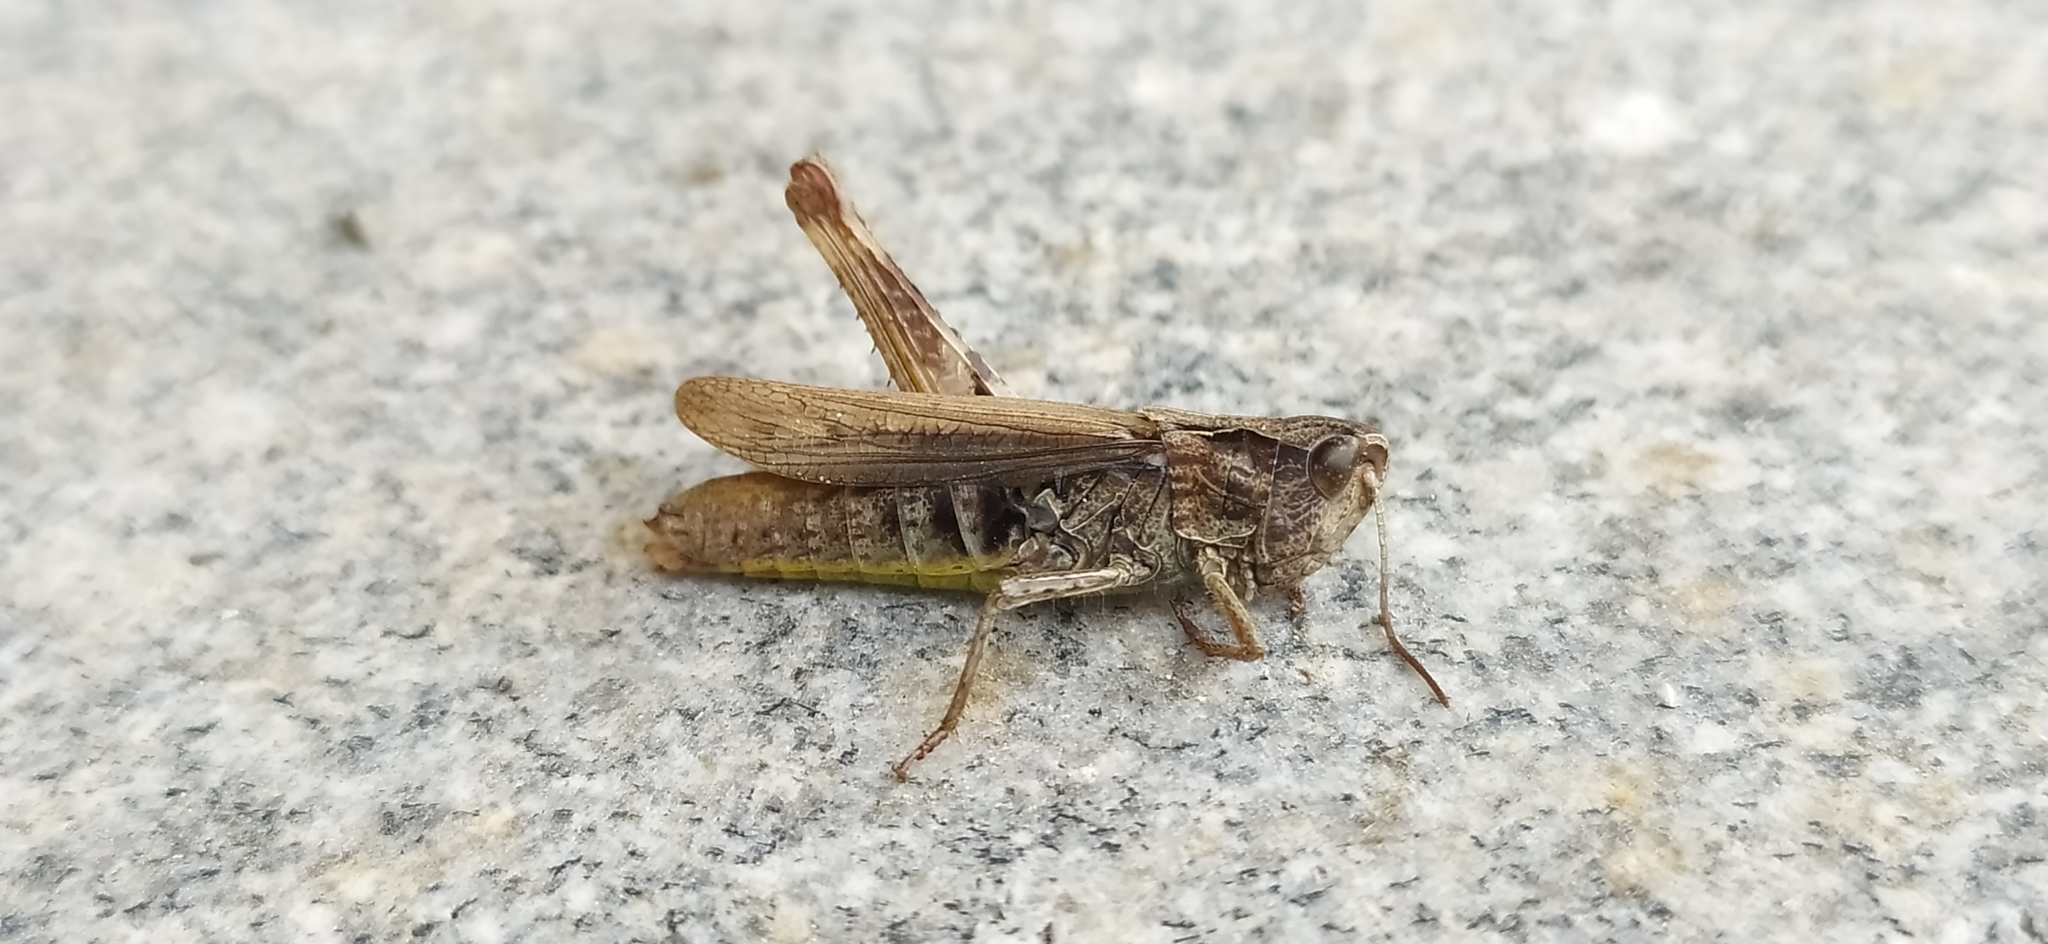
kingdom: Animalia
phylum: Arthropoda
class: Insecta
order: Orthoptera
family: Acrididae
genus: Chorthippus
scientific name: Chorthippus apricarius
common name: Upland field grasshopper
